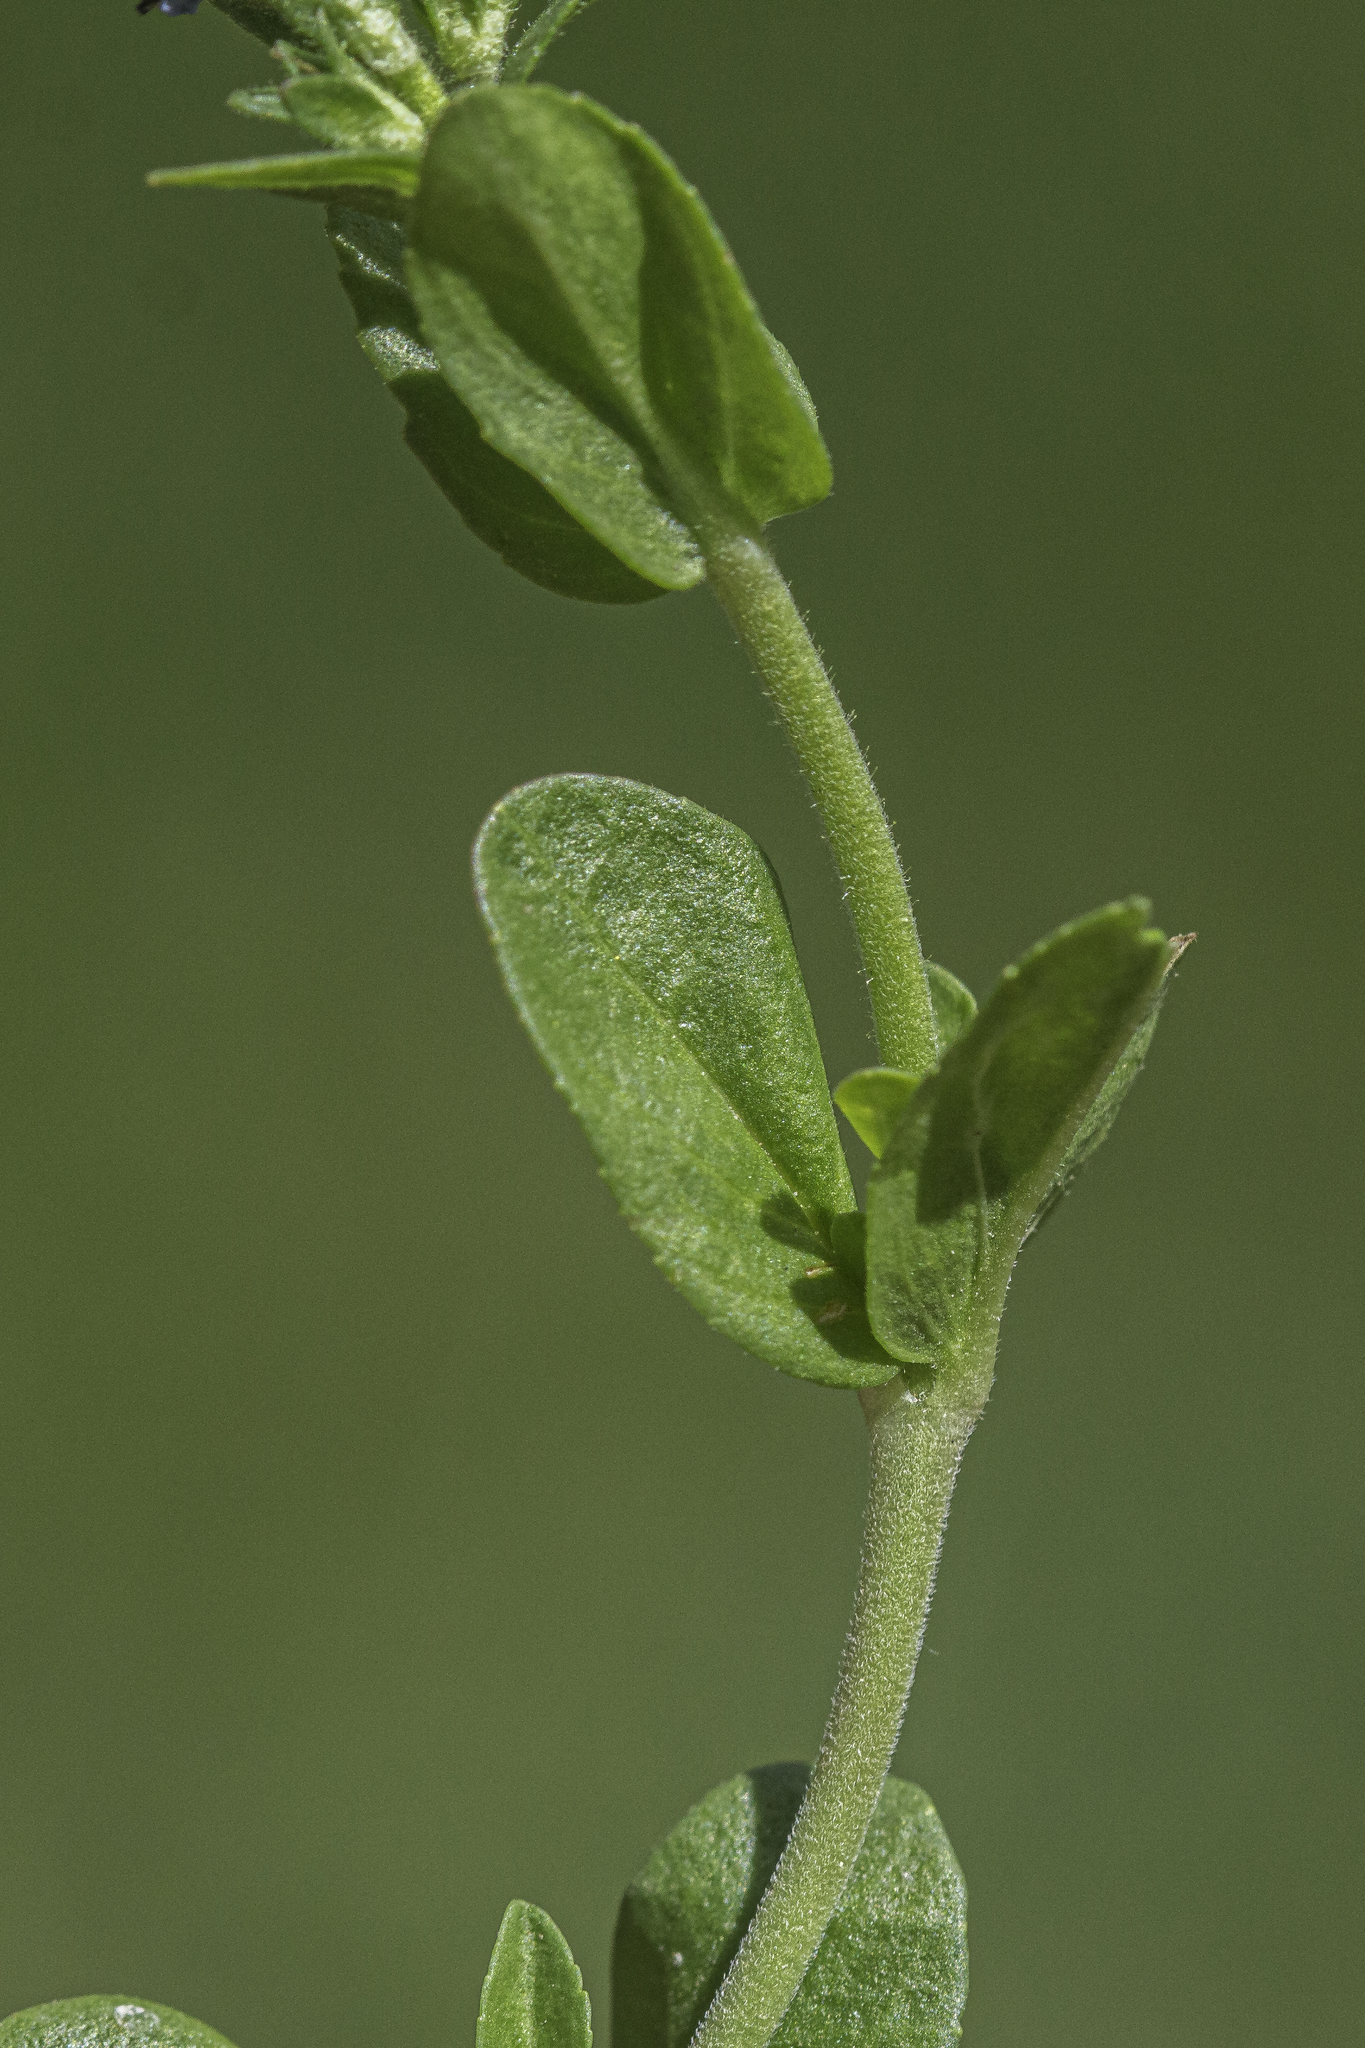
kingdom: Plantae
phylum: Tracheophyta
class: Magnoliopsida
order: Lamiales
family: Plantaginaceae
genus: Veronica
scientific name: Veronica serpyllifolia
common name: Thyme-leaved speedwell
